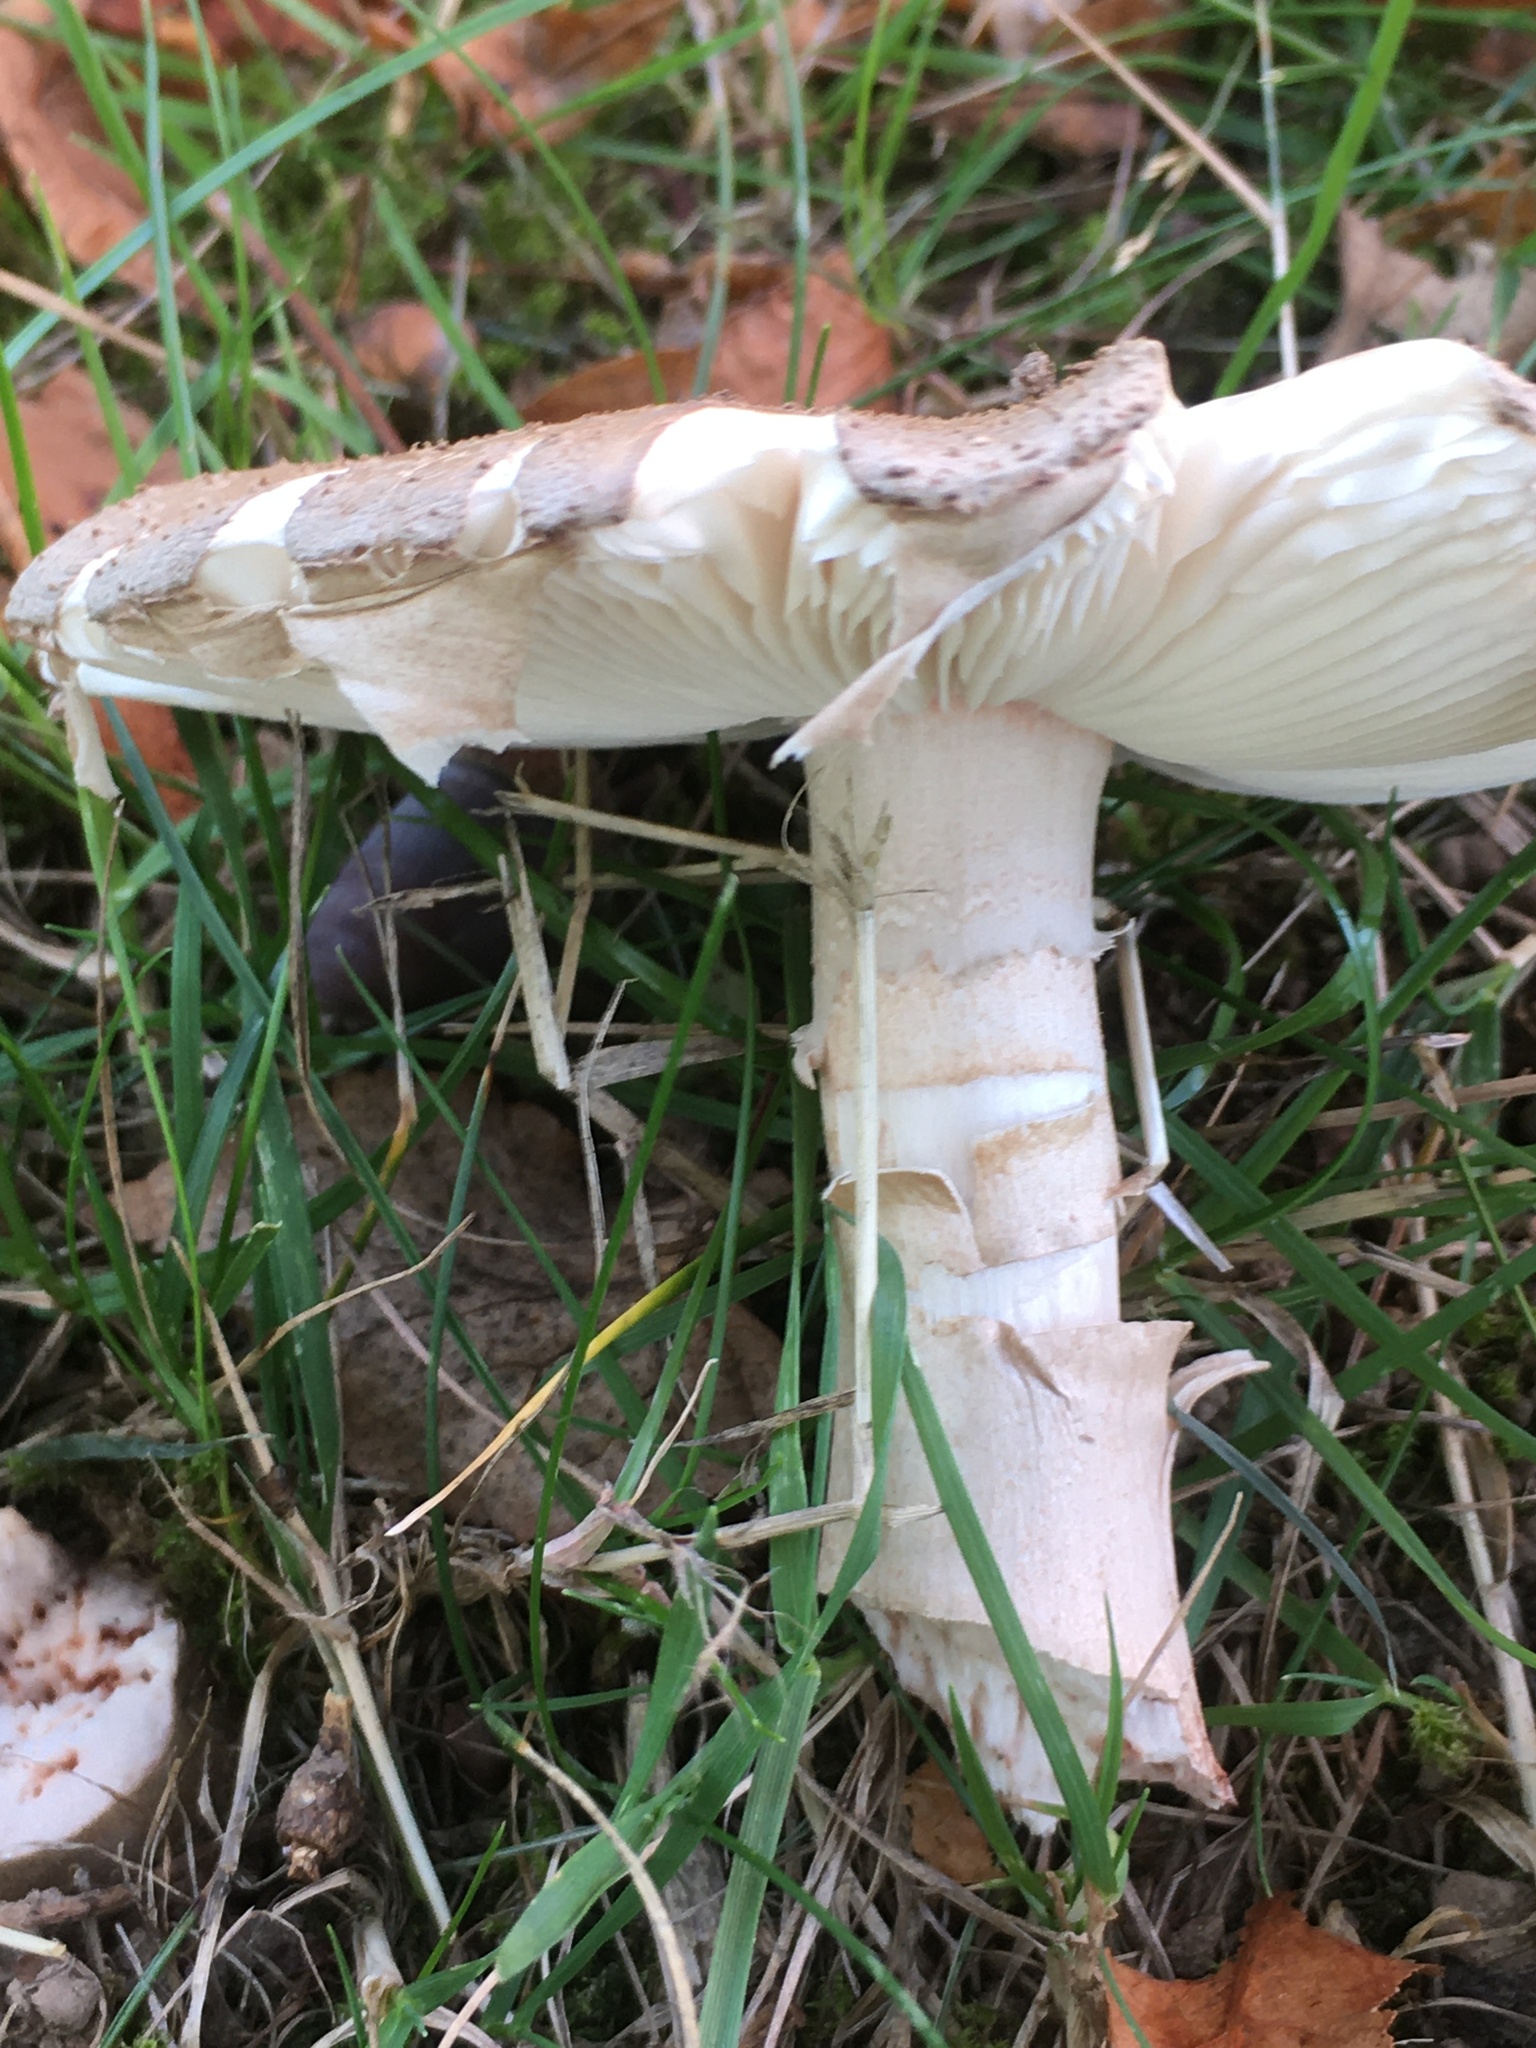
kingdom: Fungi
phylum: Basidiomycota
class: Agaricomycetes
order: Agaricales
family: Amanitaceae
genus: Amanita
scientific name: Amanita rubescens
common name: Blusher
